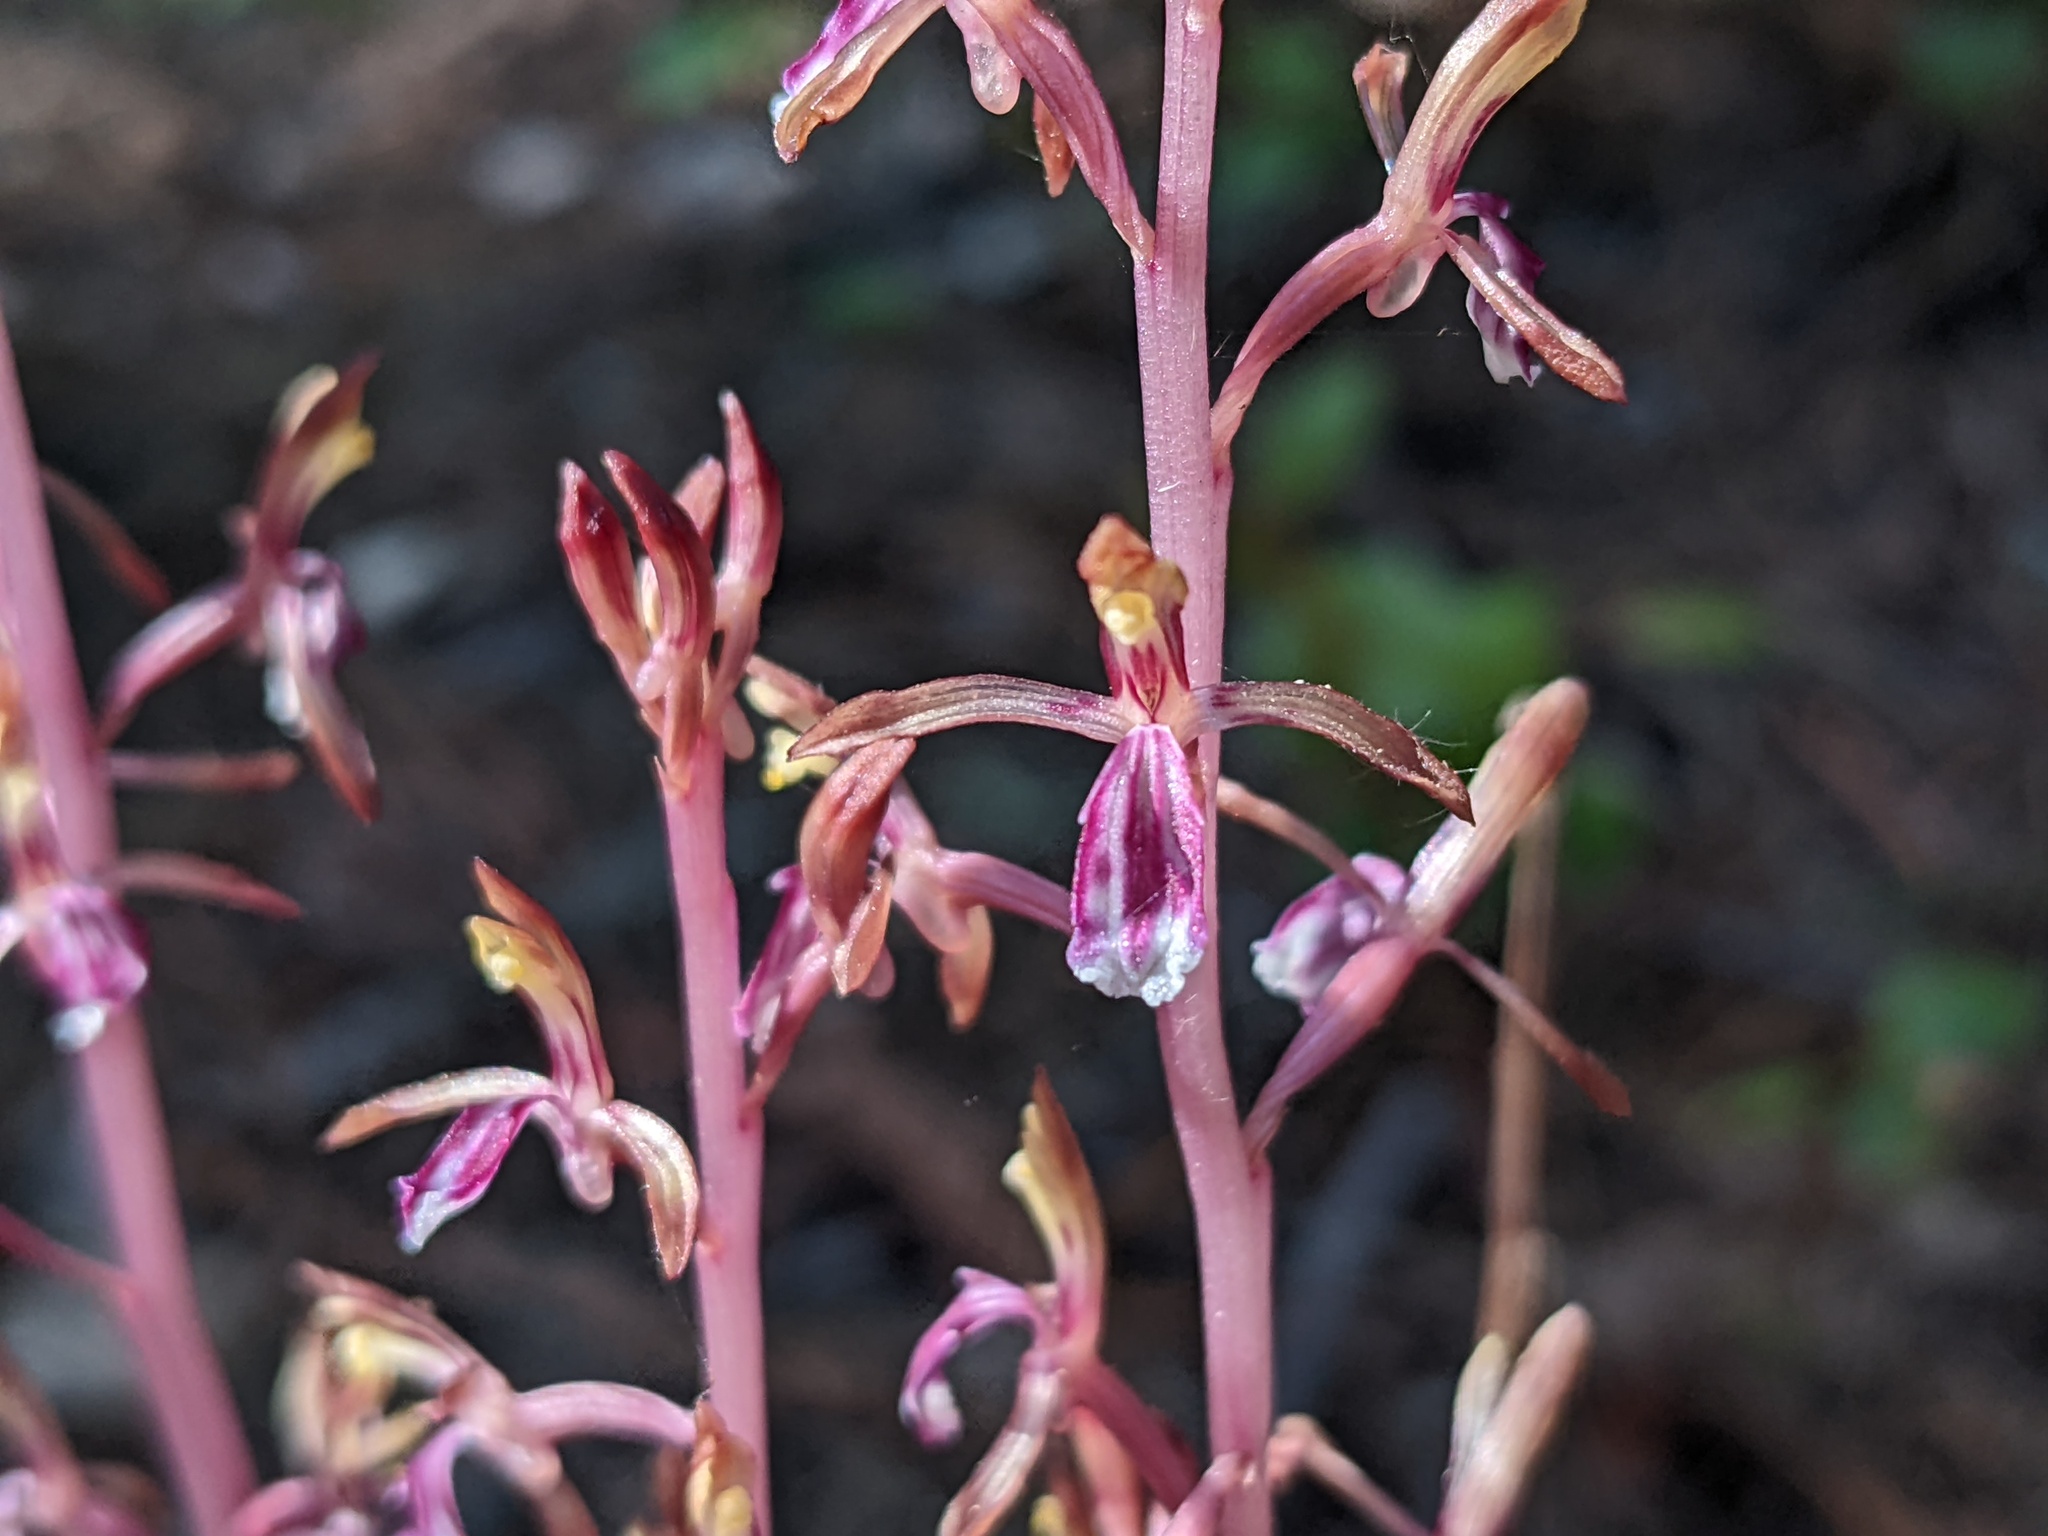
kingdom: Plantae
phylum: Tracheophyta
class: Liliopsida
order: Asparagales
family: Orchidaceae
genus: Corallorhiza
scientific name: Corallorhiza mertensiana
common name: Pacific coralroot
